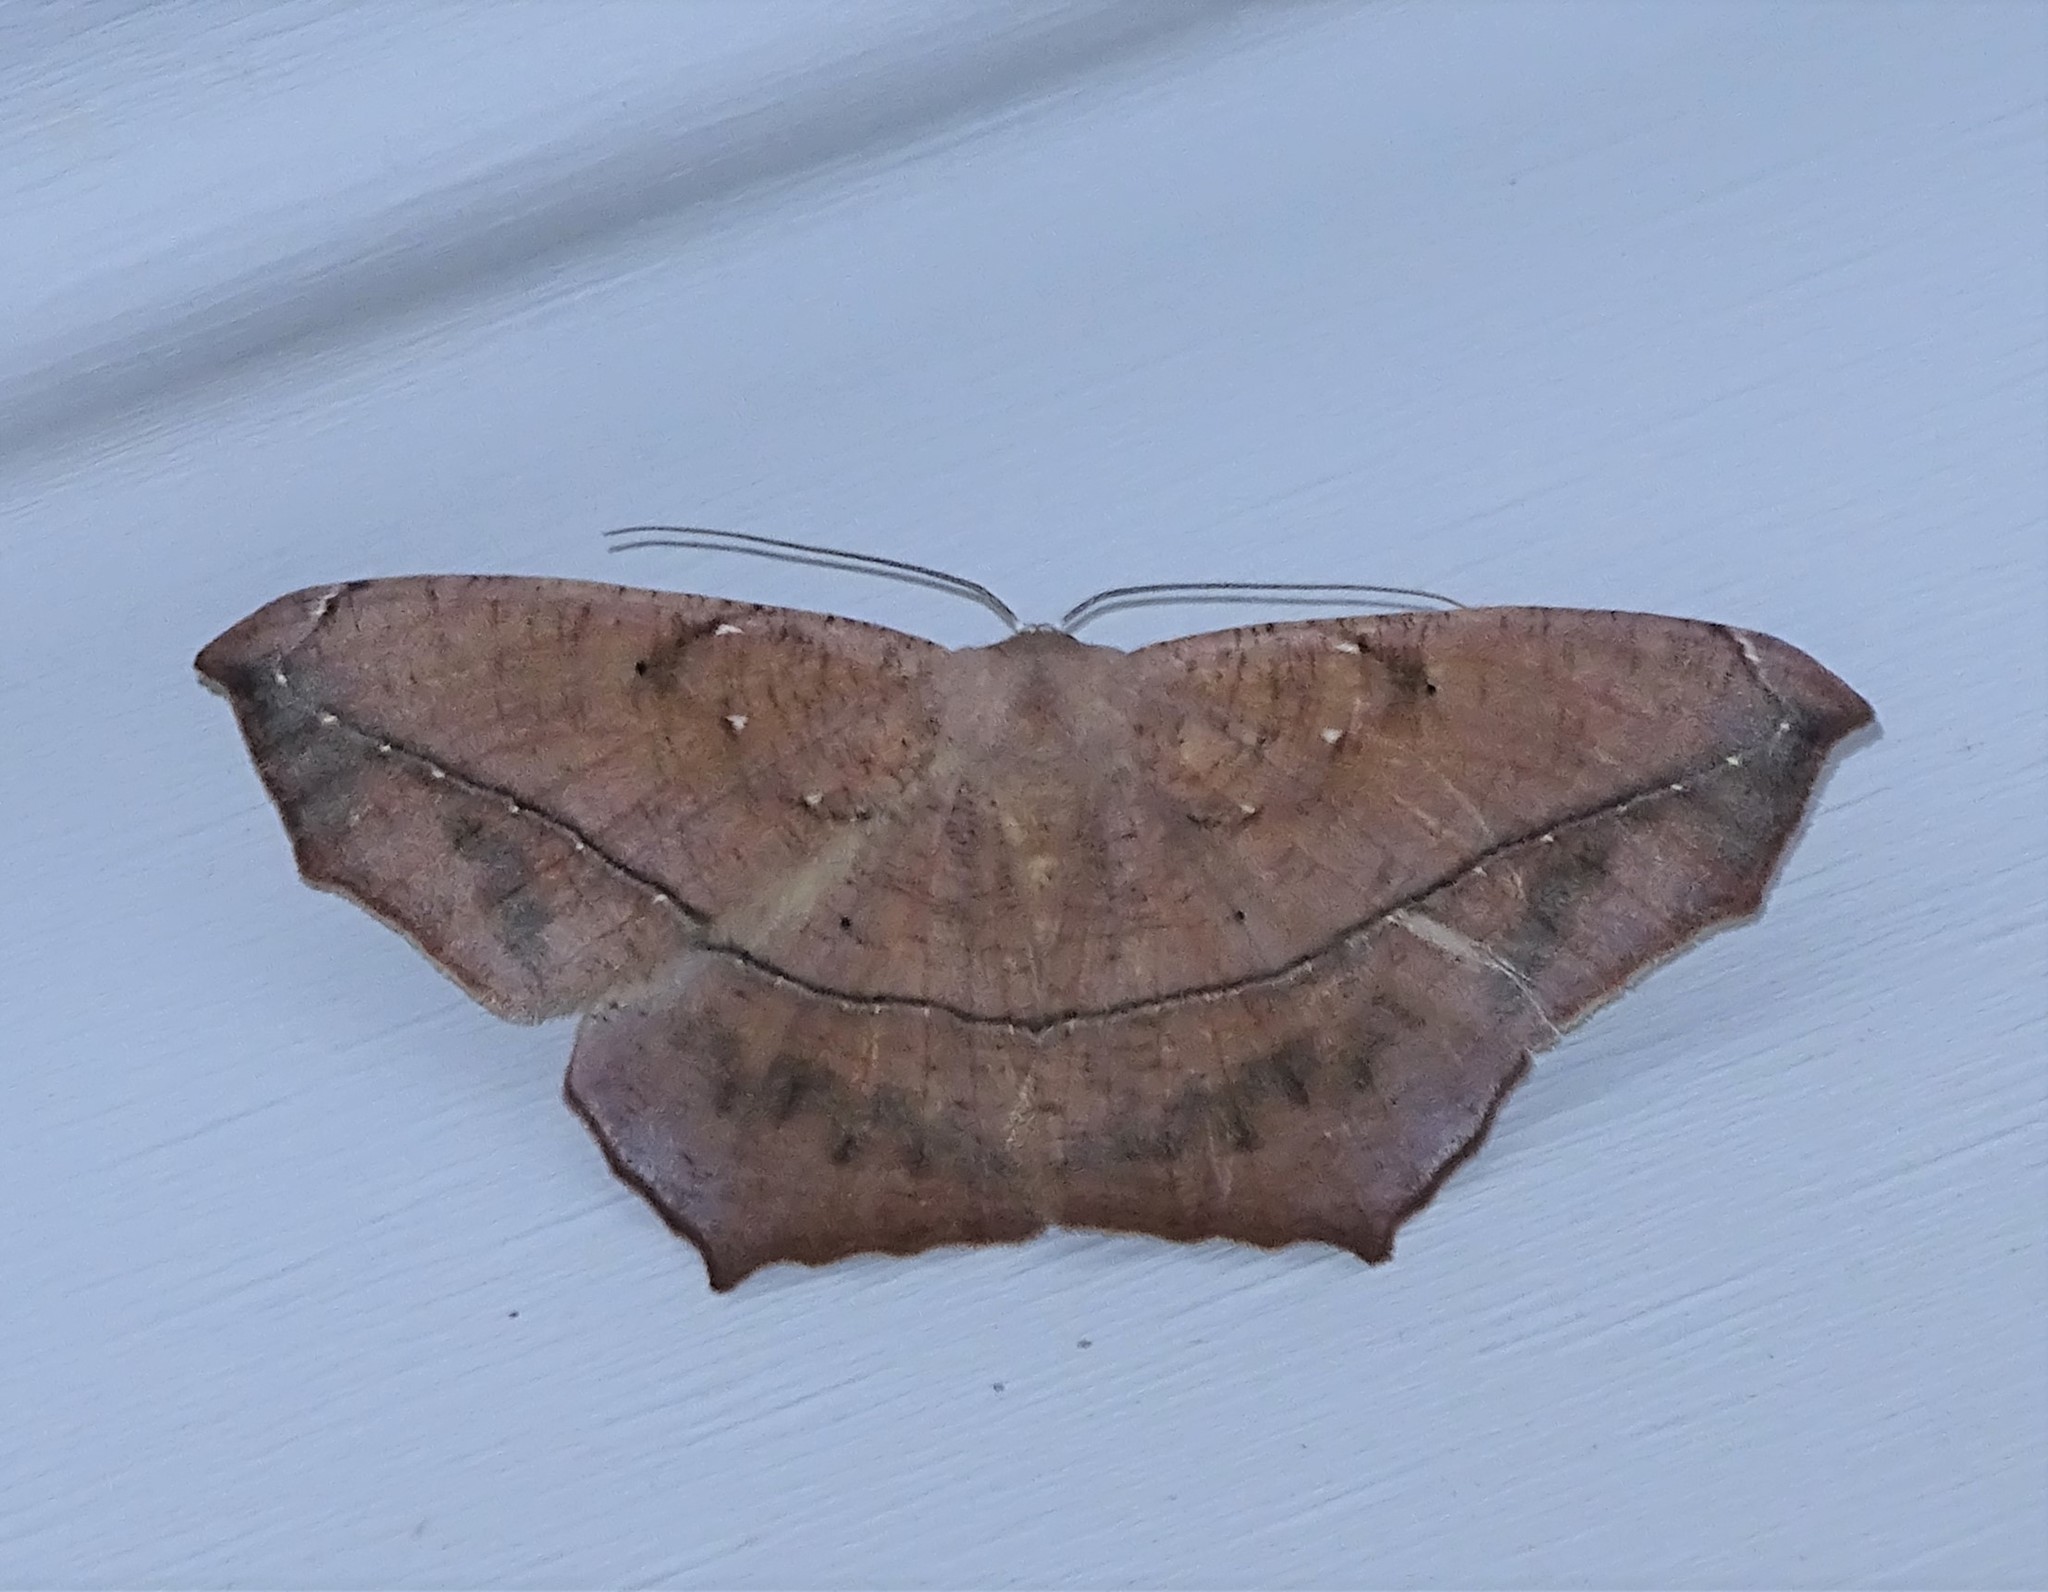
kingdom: Animalia
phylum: Arthropoda
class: Insecta
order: Lepidoptera
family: Geometridae
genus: Prochoerodes
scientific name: Prochoerodes lineola
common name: Large maple spanworm
